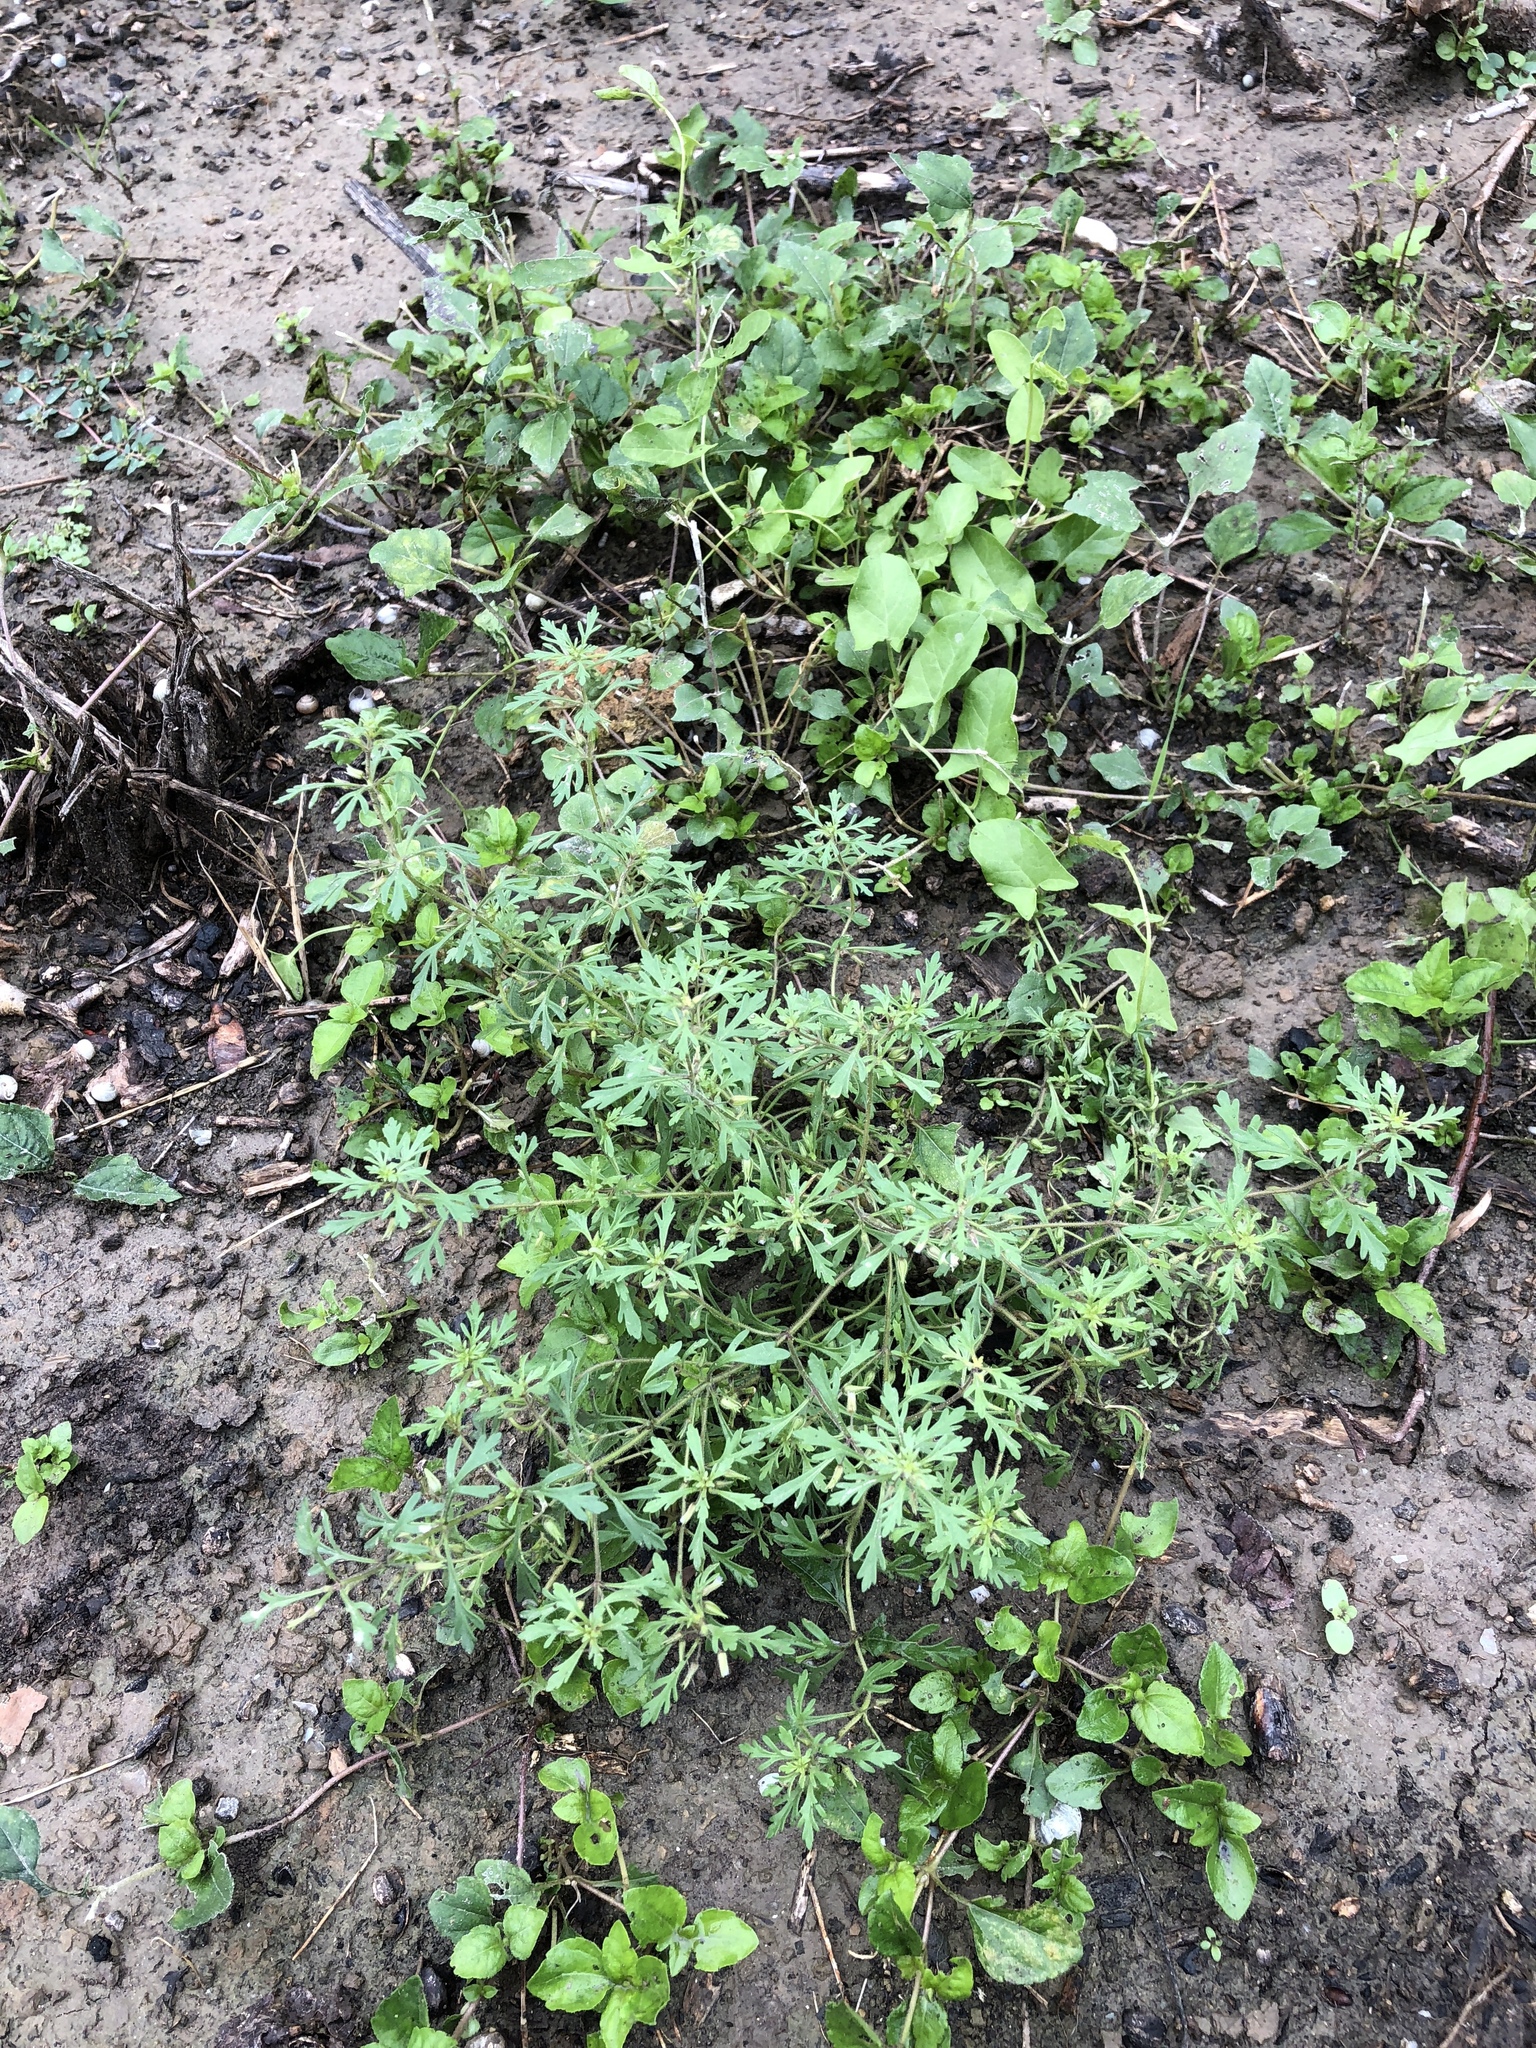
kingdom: Plantae
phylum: Tracheophyta
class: Magnoliopsida
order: Lamiales
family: Plantaginaceae
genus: Leucospora
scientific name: Leucospora multifida
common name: Narrow-leaf paleseed
